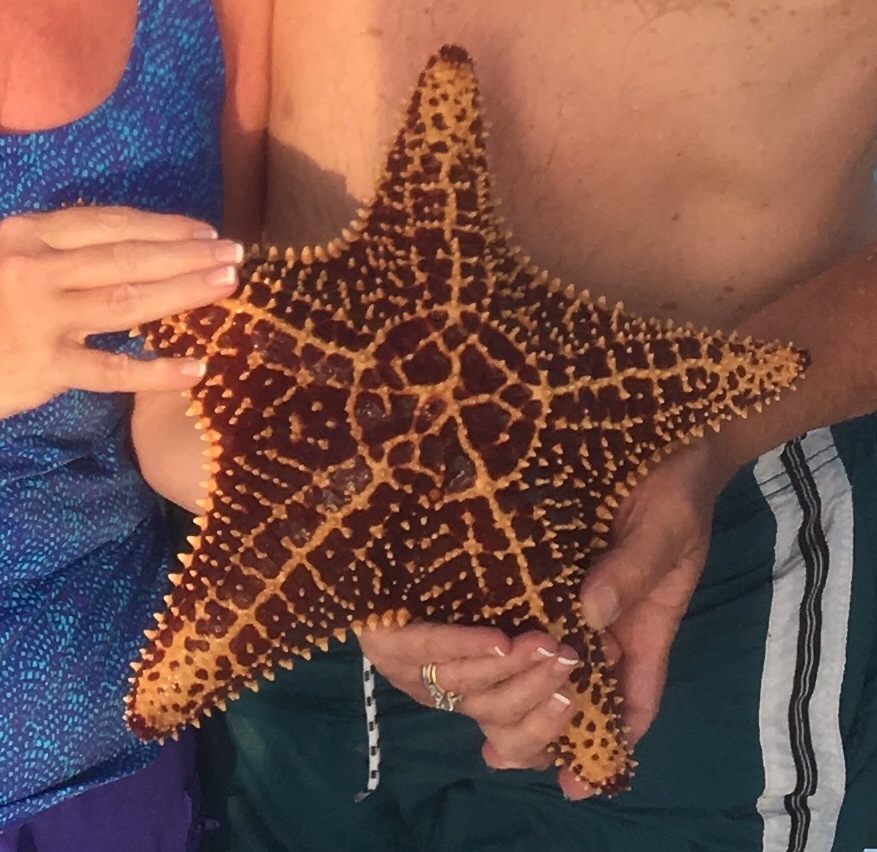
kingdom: Animalia
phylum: Echinodermata
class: Asteroidea
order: Valvatida
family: Oreasteridae
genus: Oreaster
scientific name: Oreaster reticulatus
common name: Cushion sea star
